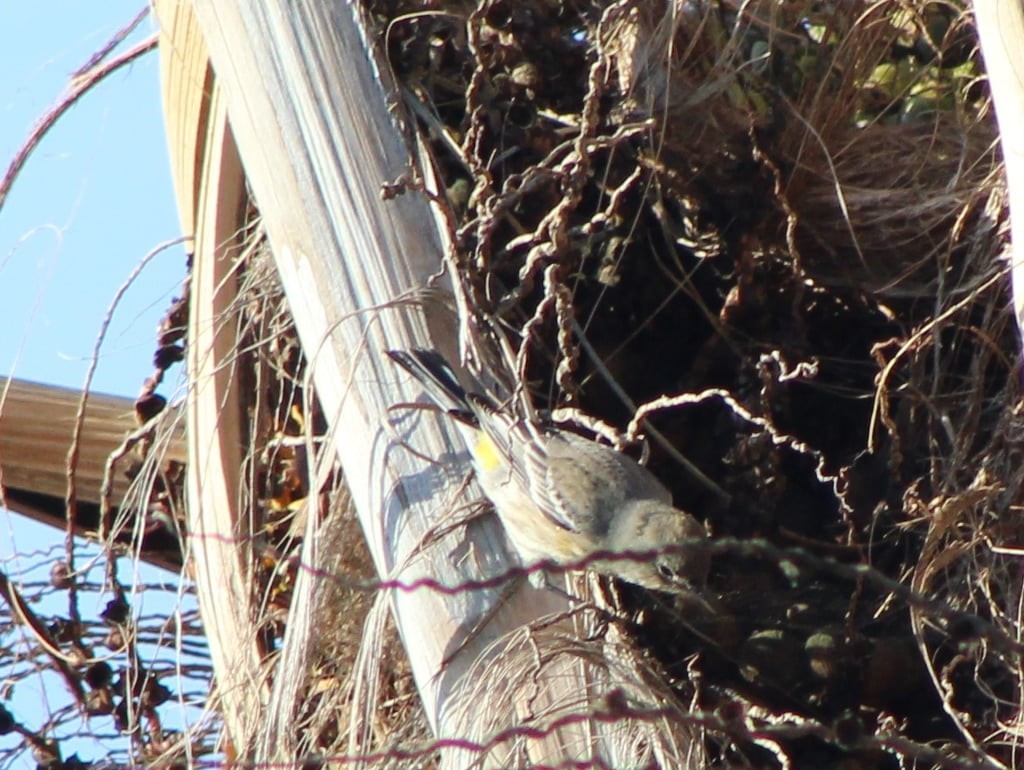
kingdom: Animalia
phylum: Chordata
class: Aves
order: Passeriformes
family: Parulidae
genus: Setophaga
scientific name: Setophaga coronata
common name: Myrtle warbler
